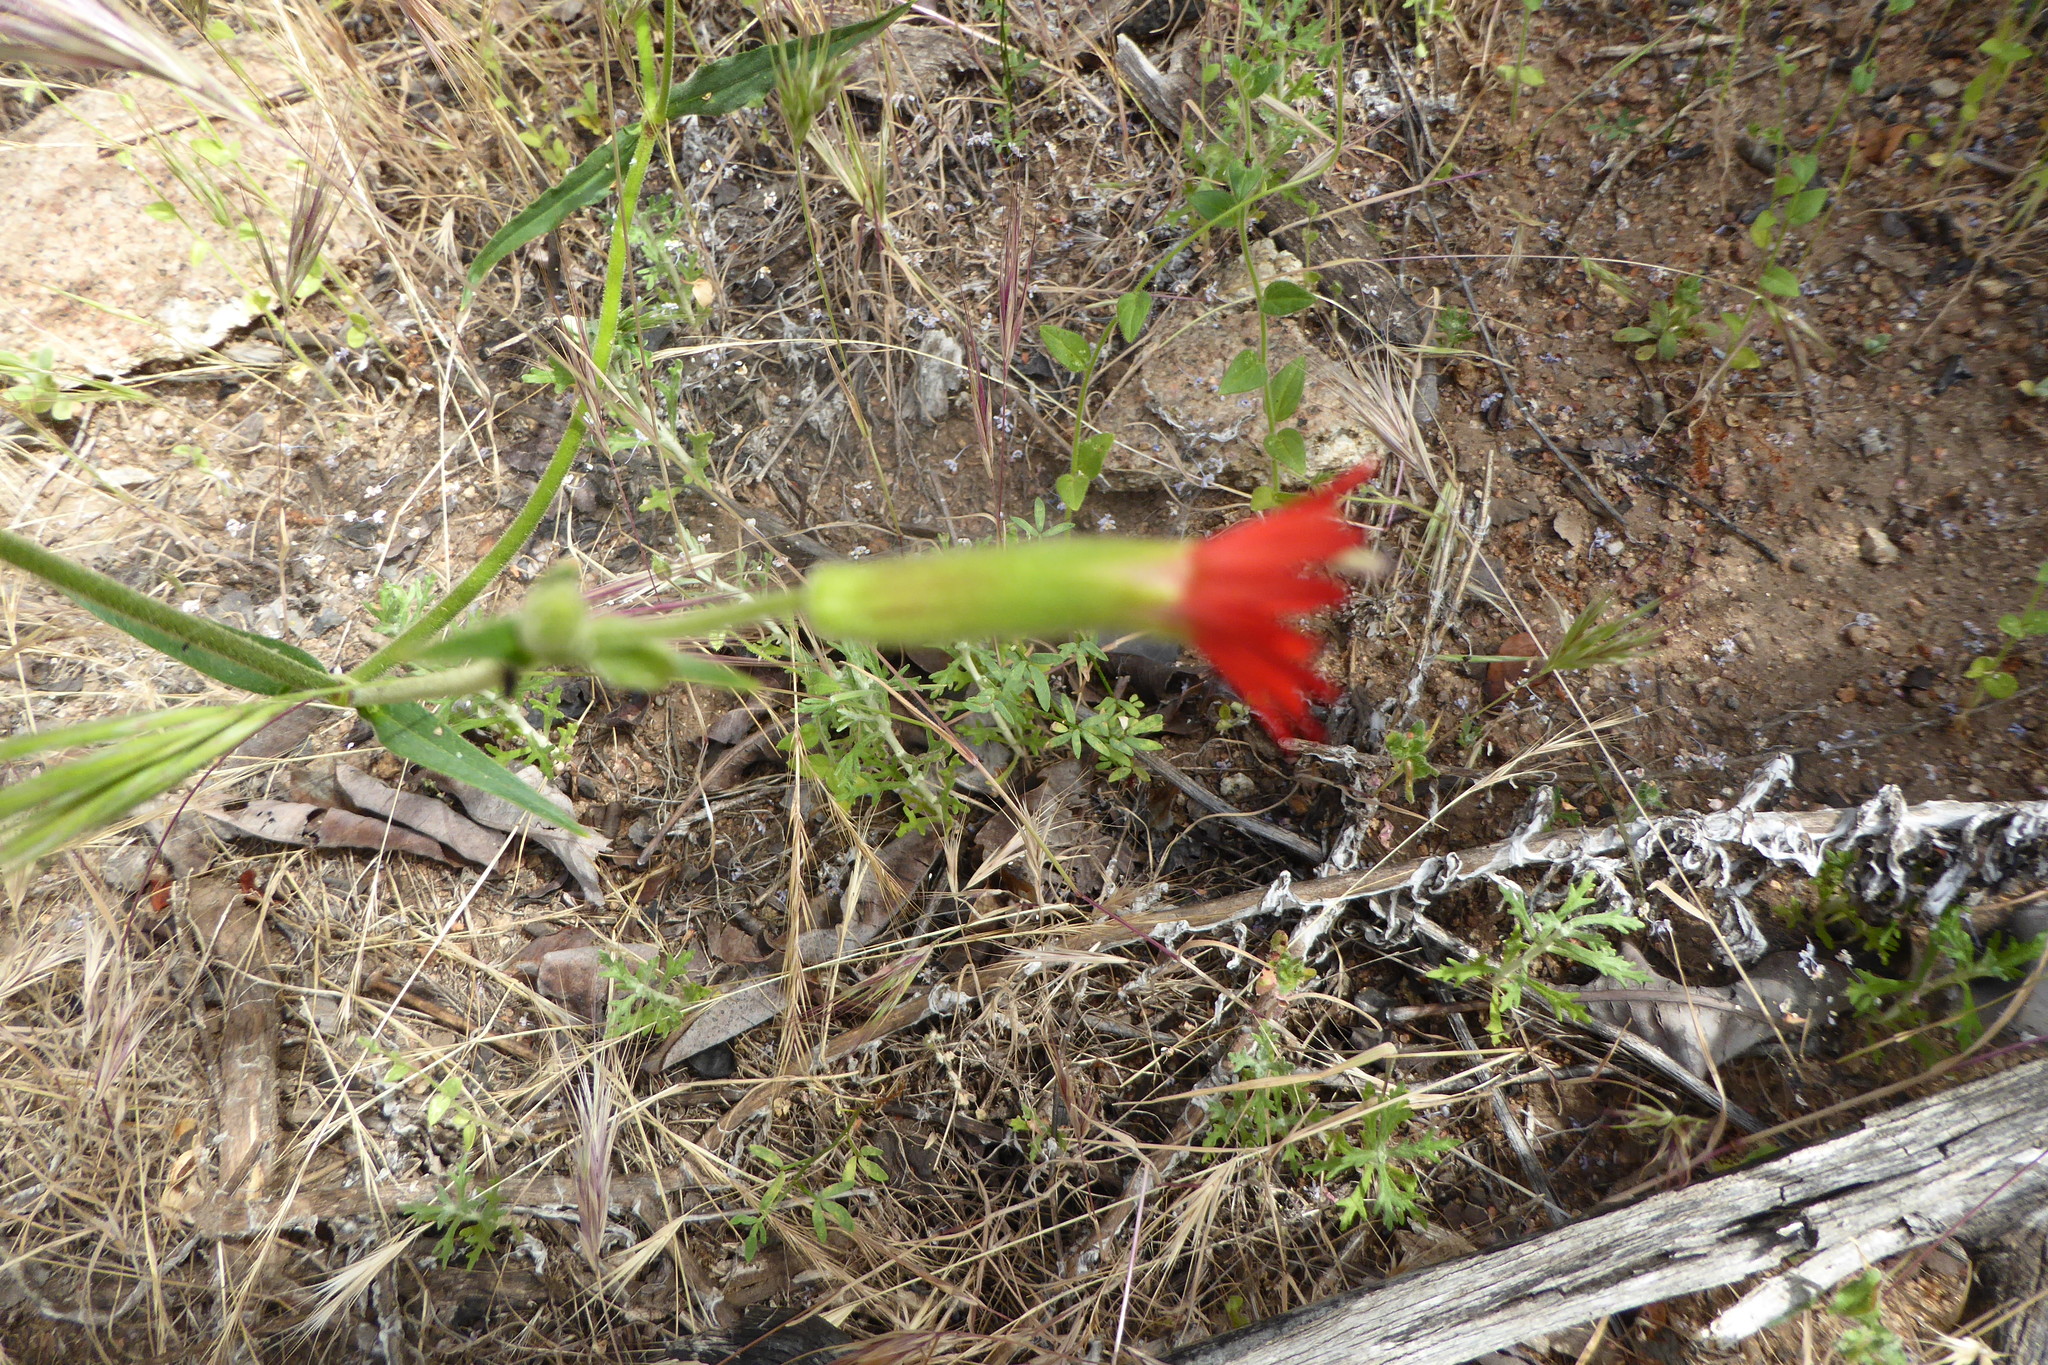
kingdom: Plantae
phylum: Tracheophyta
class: Magnoliopsida
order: Caryophyllales
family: Caryophyllaceae
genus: Silene
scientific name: Silene laciniata
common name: Indian-pink
